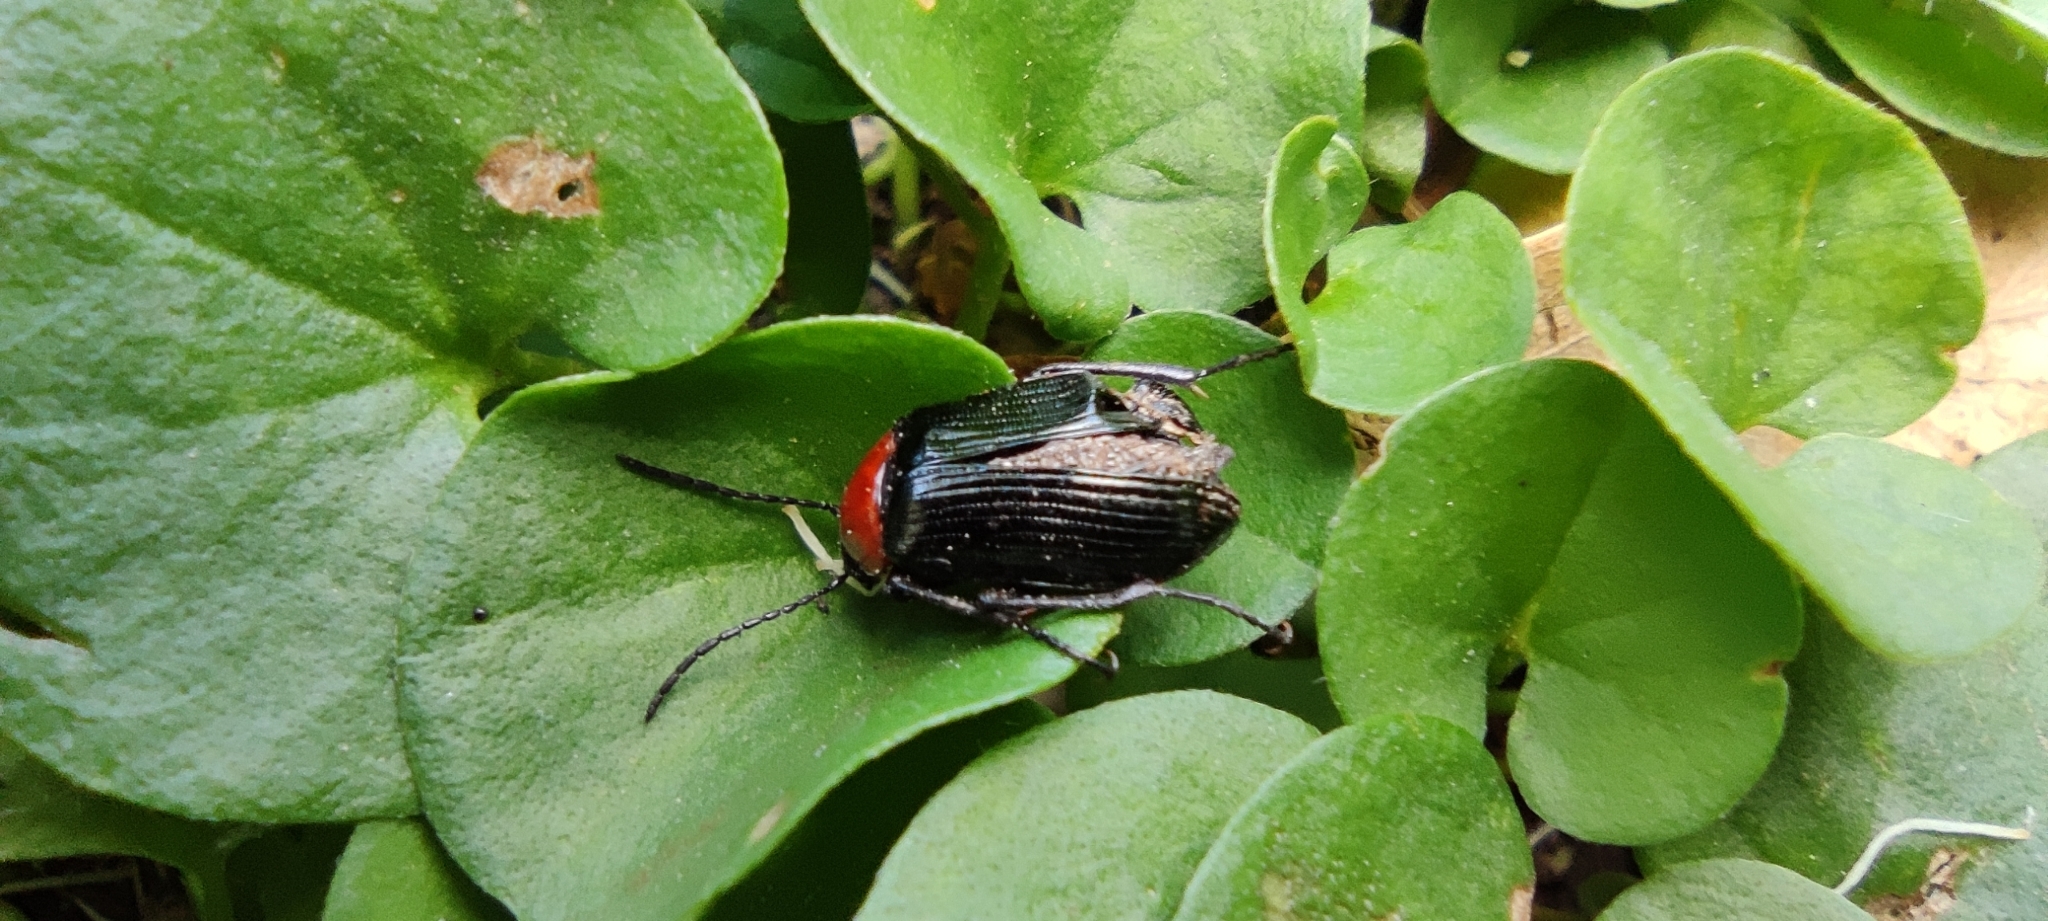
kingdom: Animalia
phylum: Arthropoda
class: Insecta
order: Coleoptera
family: Tenebrionidae
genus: Heliotaurus
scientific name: Heliotaurus ruficollis
